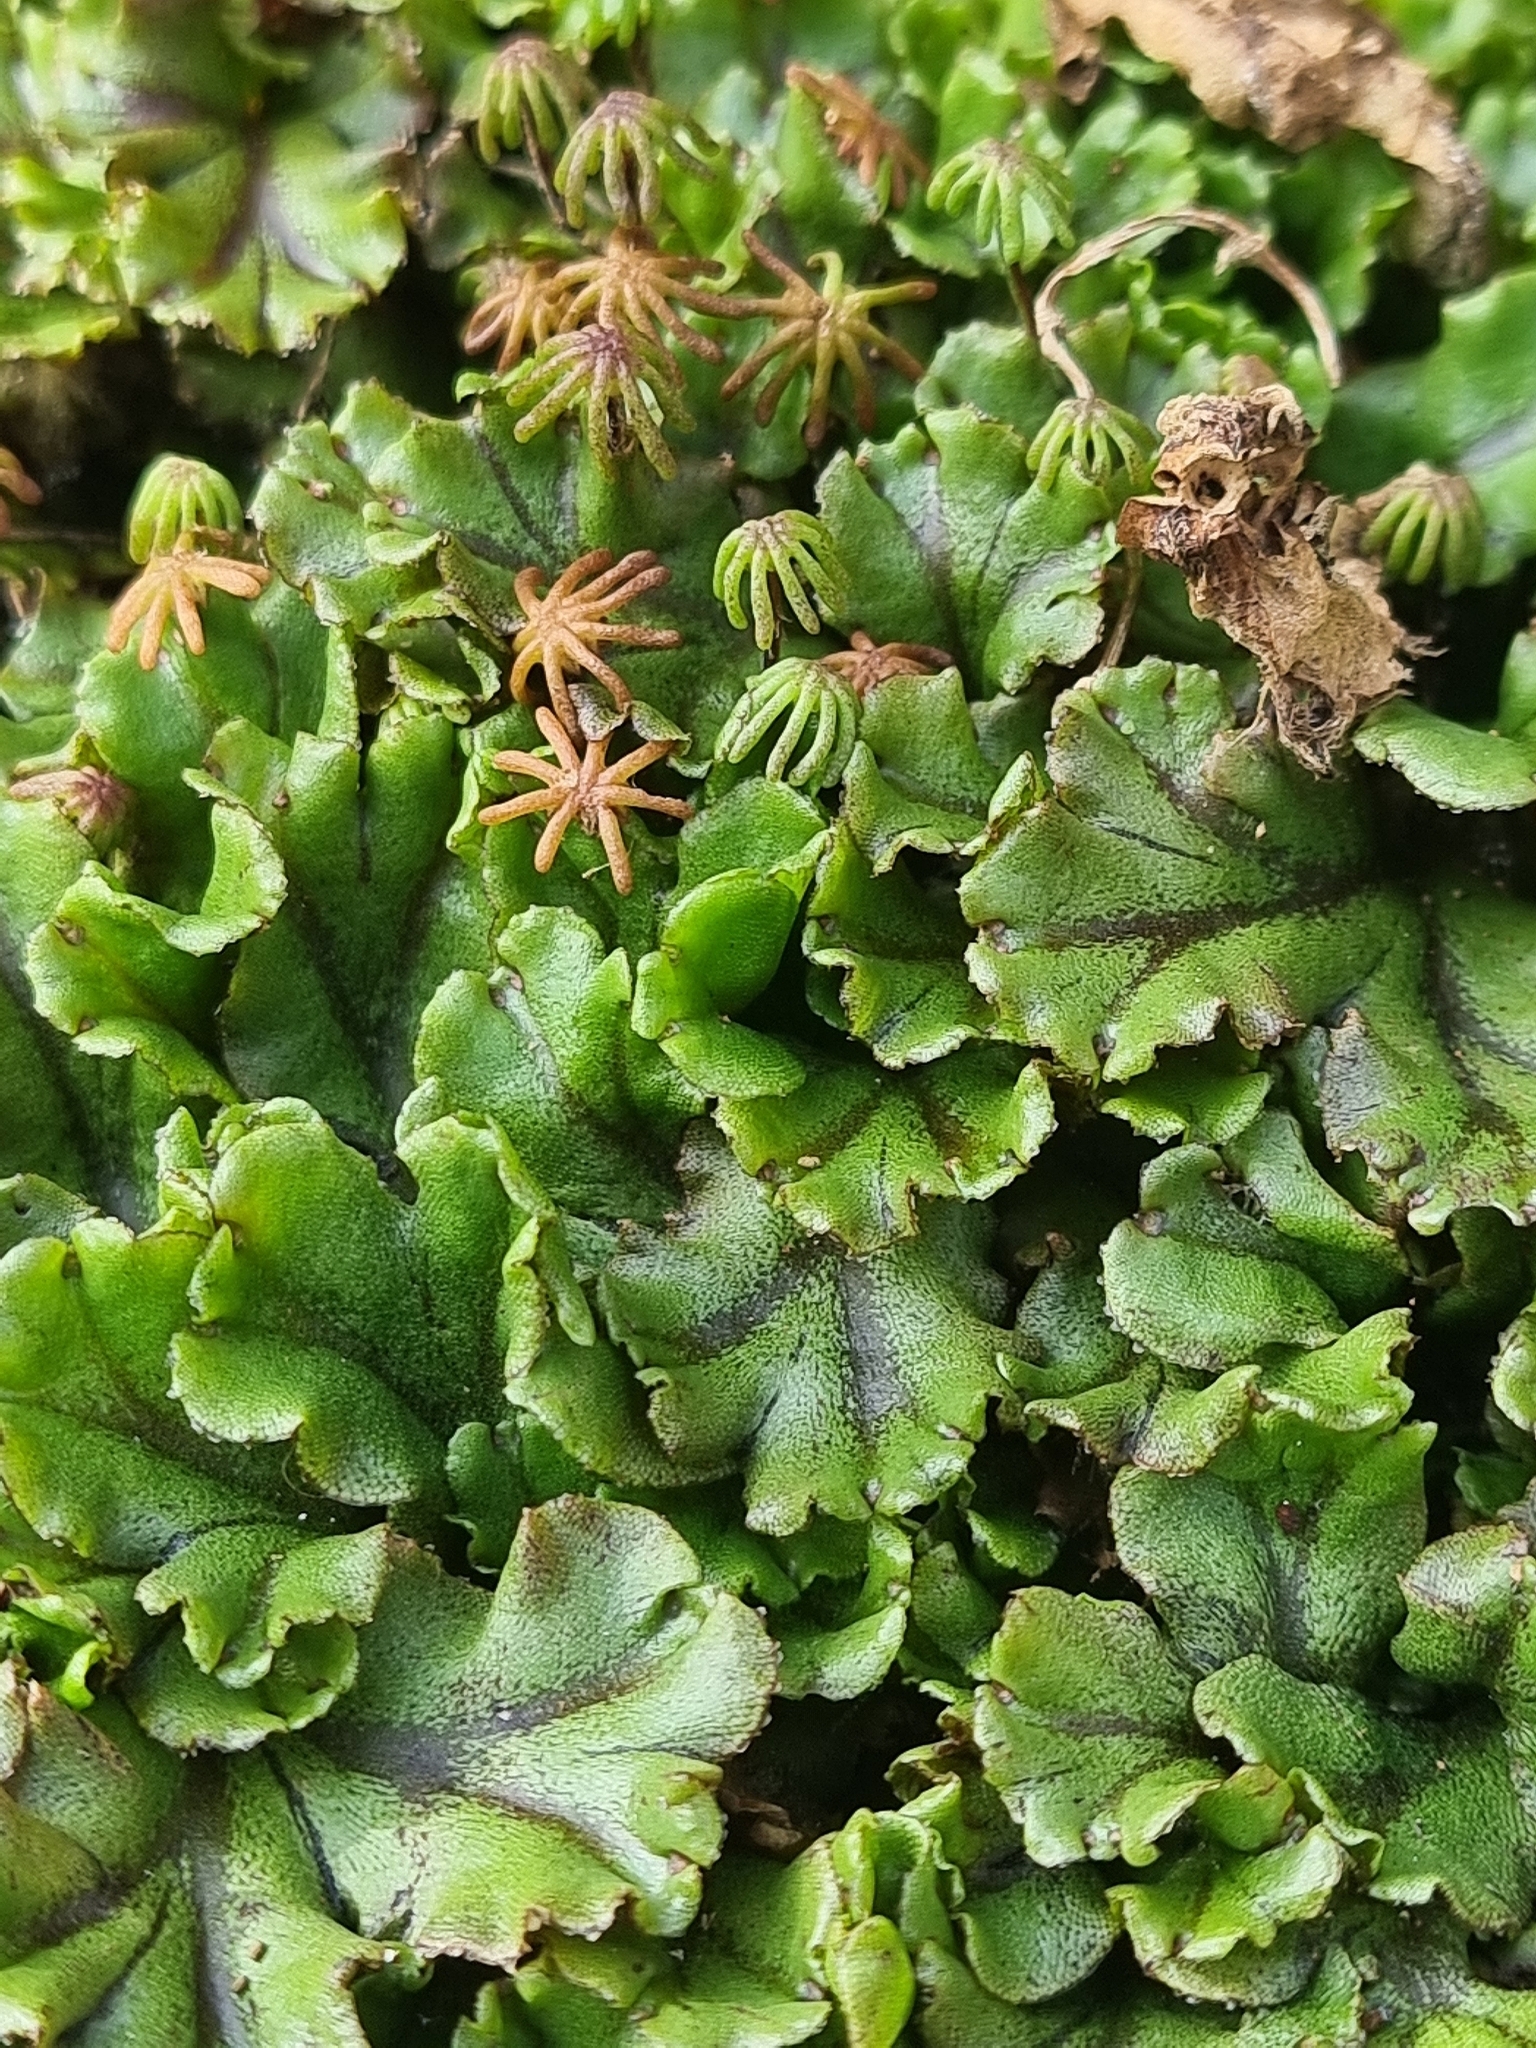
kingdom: Plantae
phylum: Marchantiophyta
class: Marchantiopsida
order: Marchantiales
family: Marchantiaceae
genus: Marchantia
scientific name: Marchantia polymorpha
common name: Common liverwort
